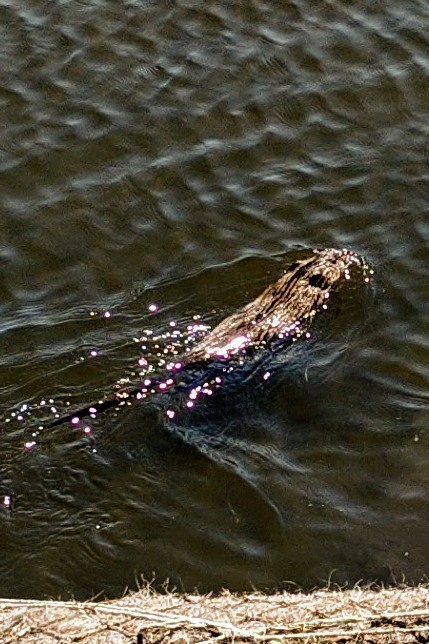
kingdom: Animalia
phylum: Chordata
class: Mammalia
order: Rodentia
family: Cricetidae
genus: Ondatra
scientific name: Ondatra zibethicus
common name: Muskrat
